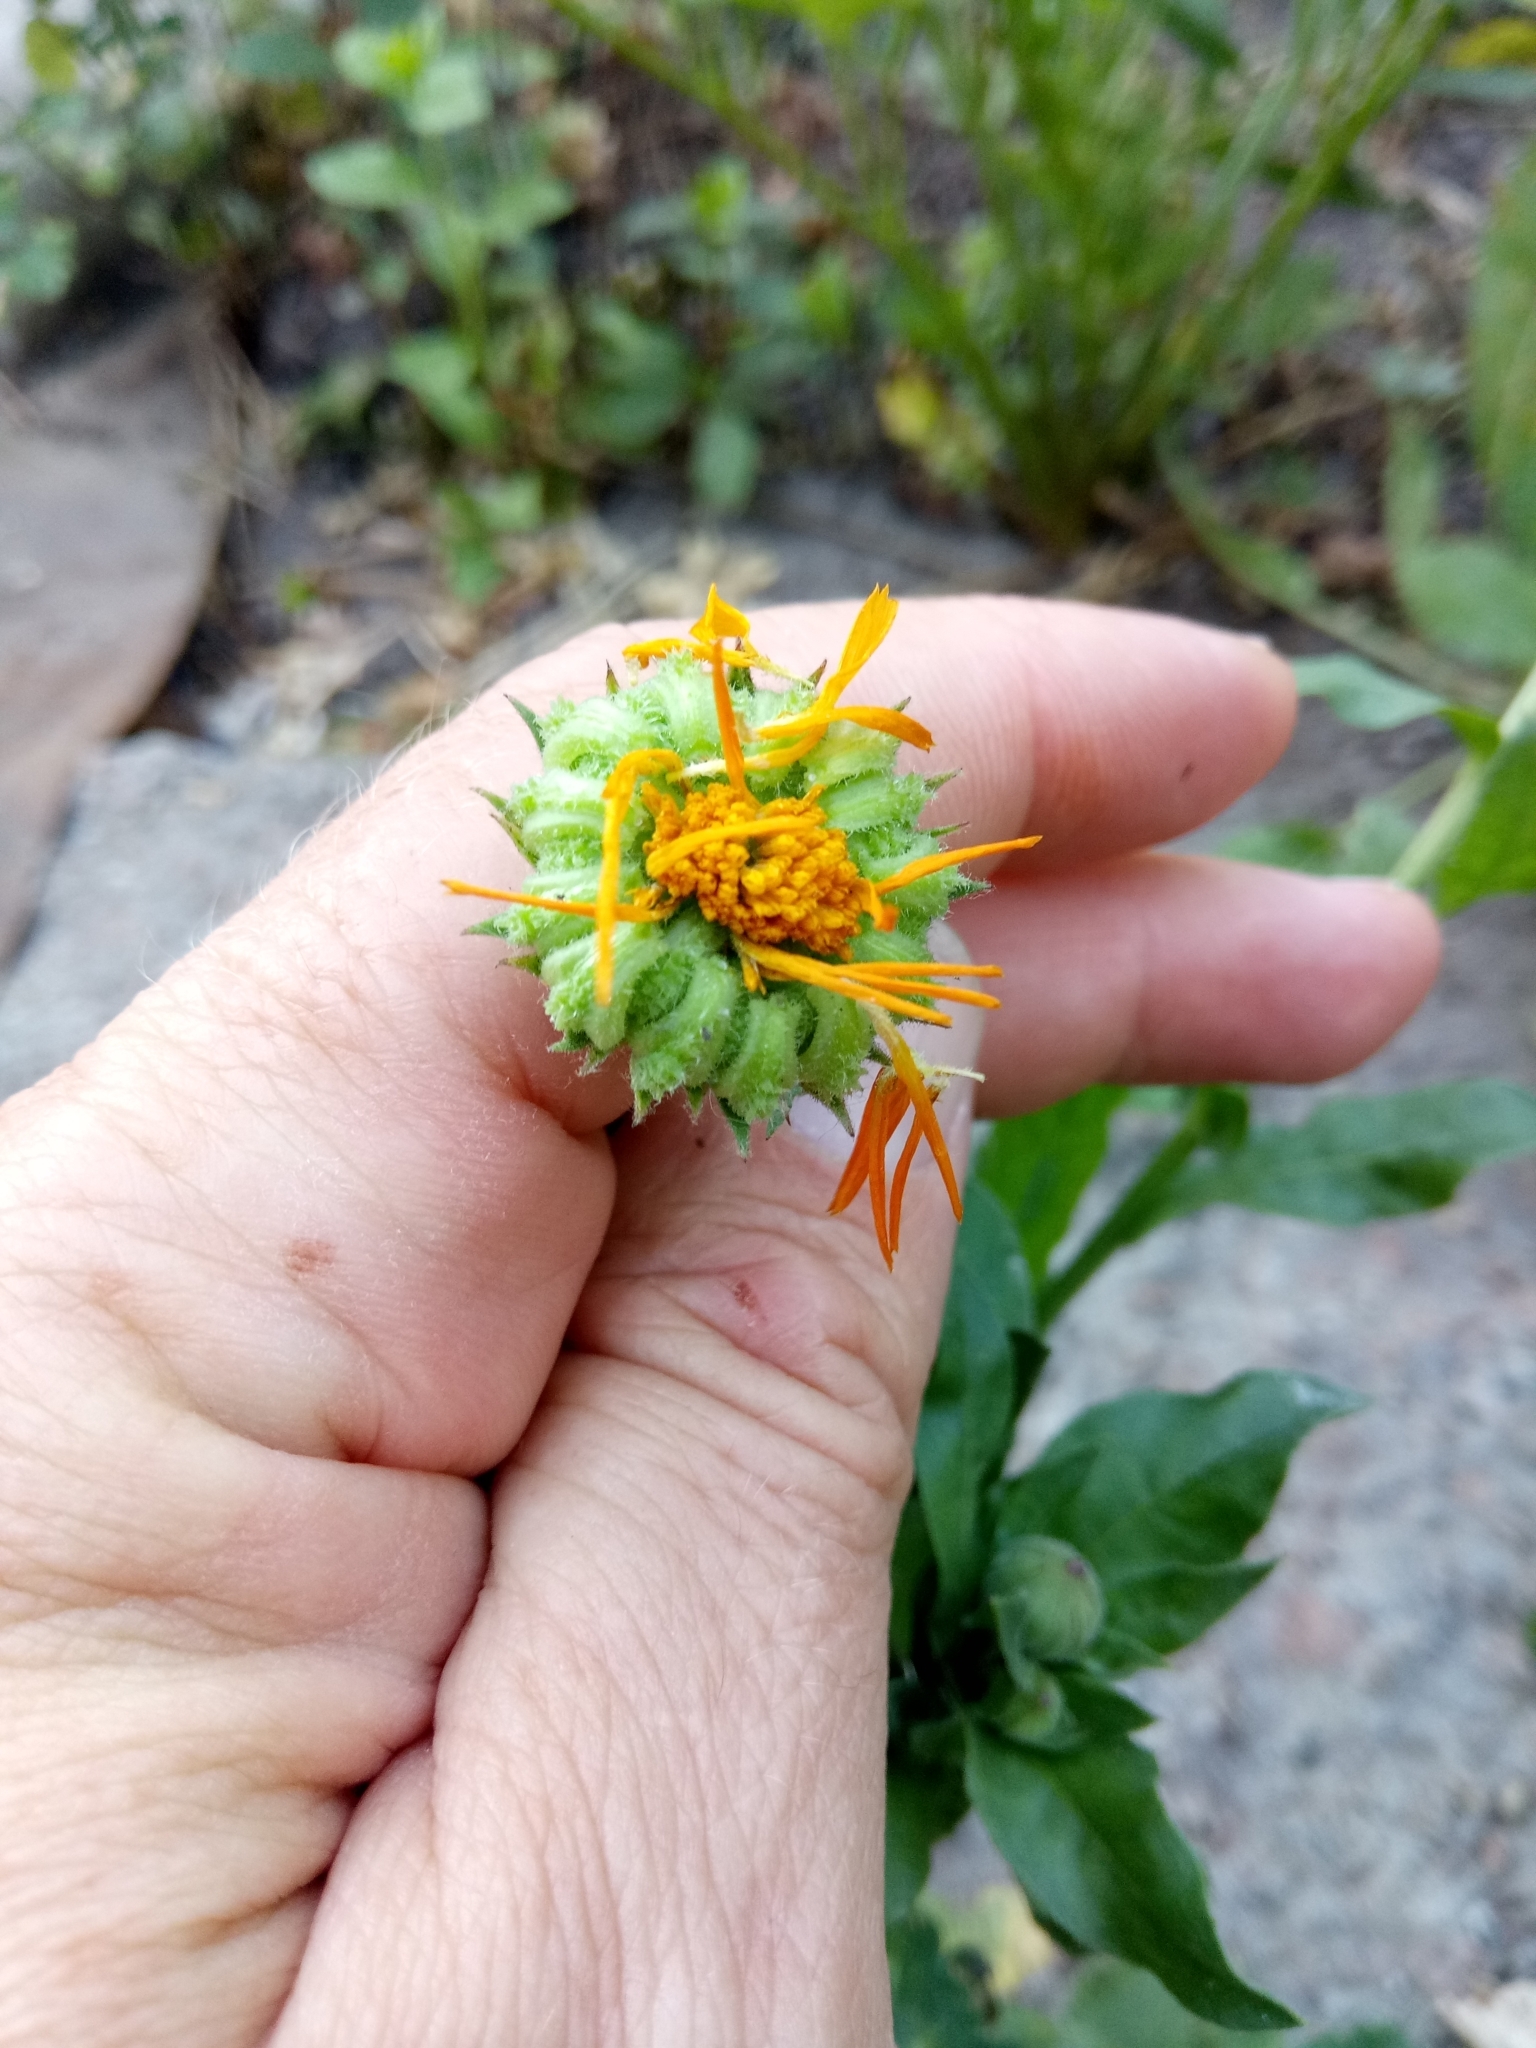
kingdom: Plantae
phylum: Tracheophyta
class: Magnoliopsida
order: Asterales
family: Asteraceae
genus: Calendula
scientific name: Calendula officinalis
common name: Pot marigold
